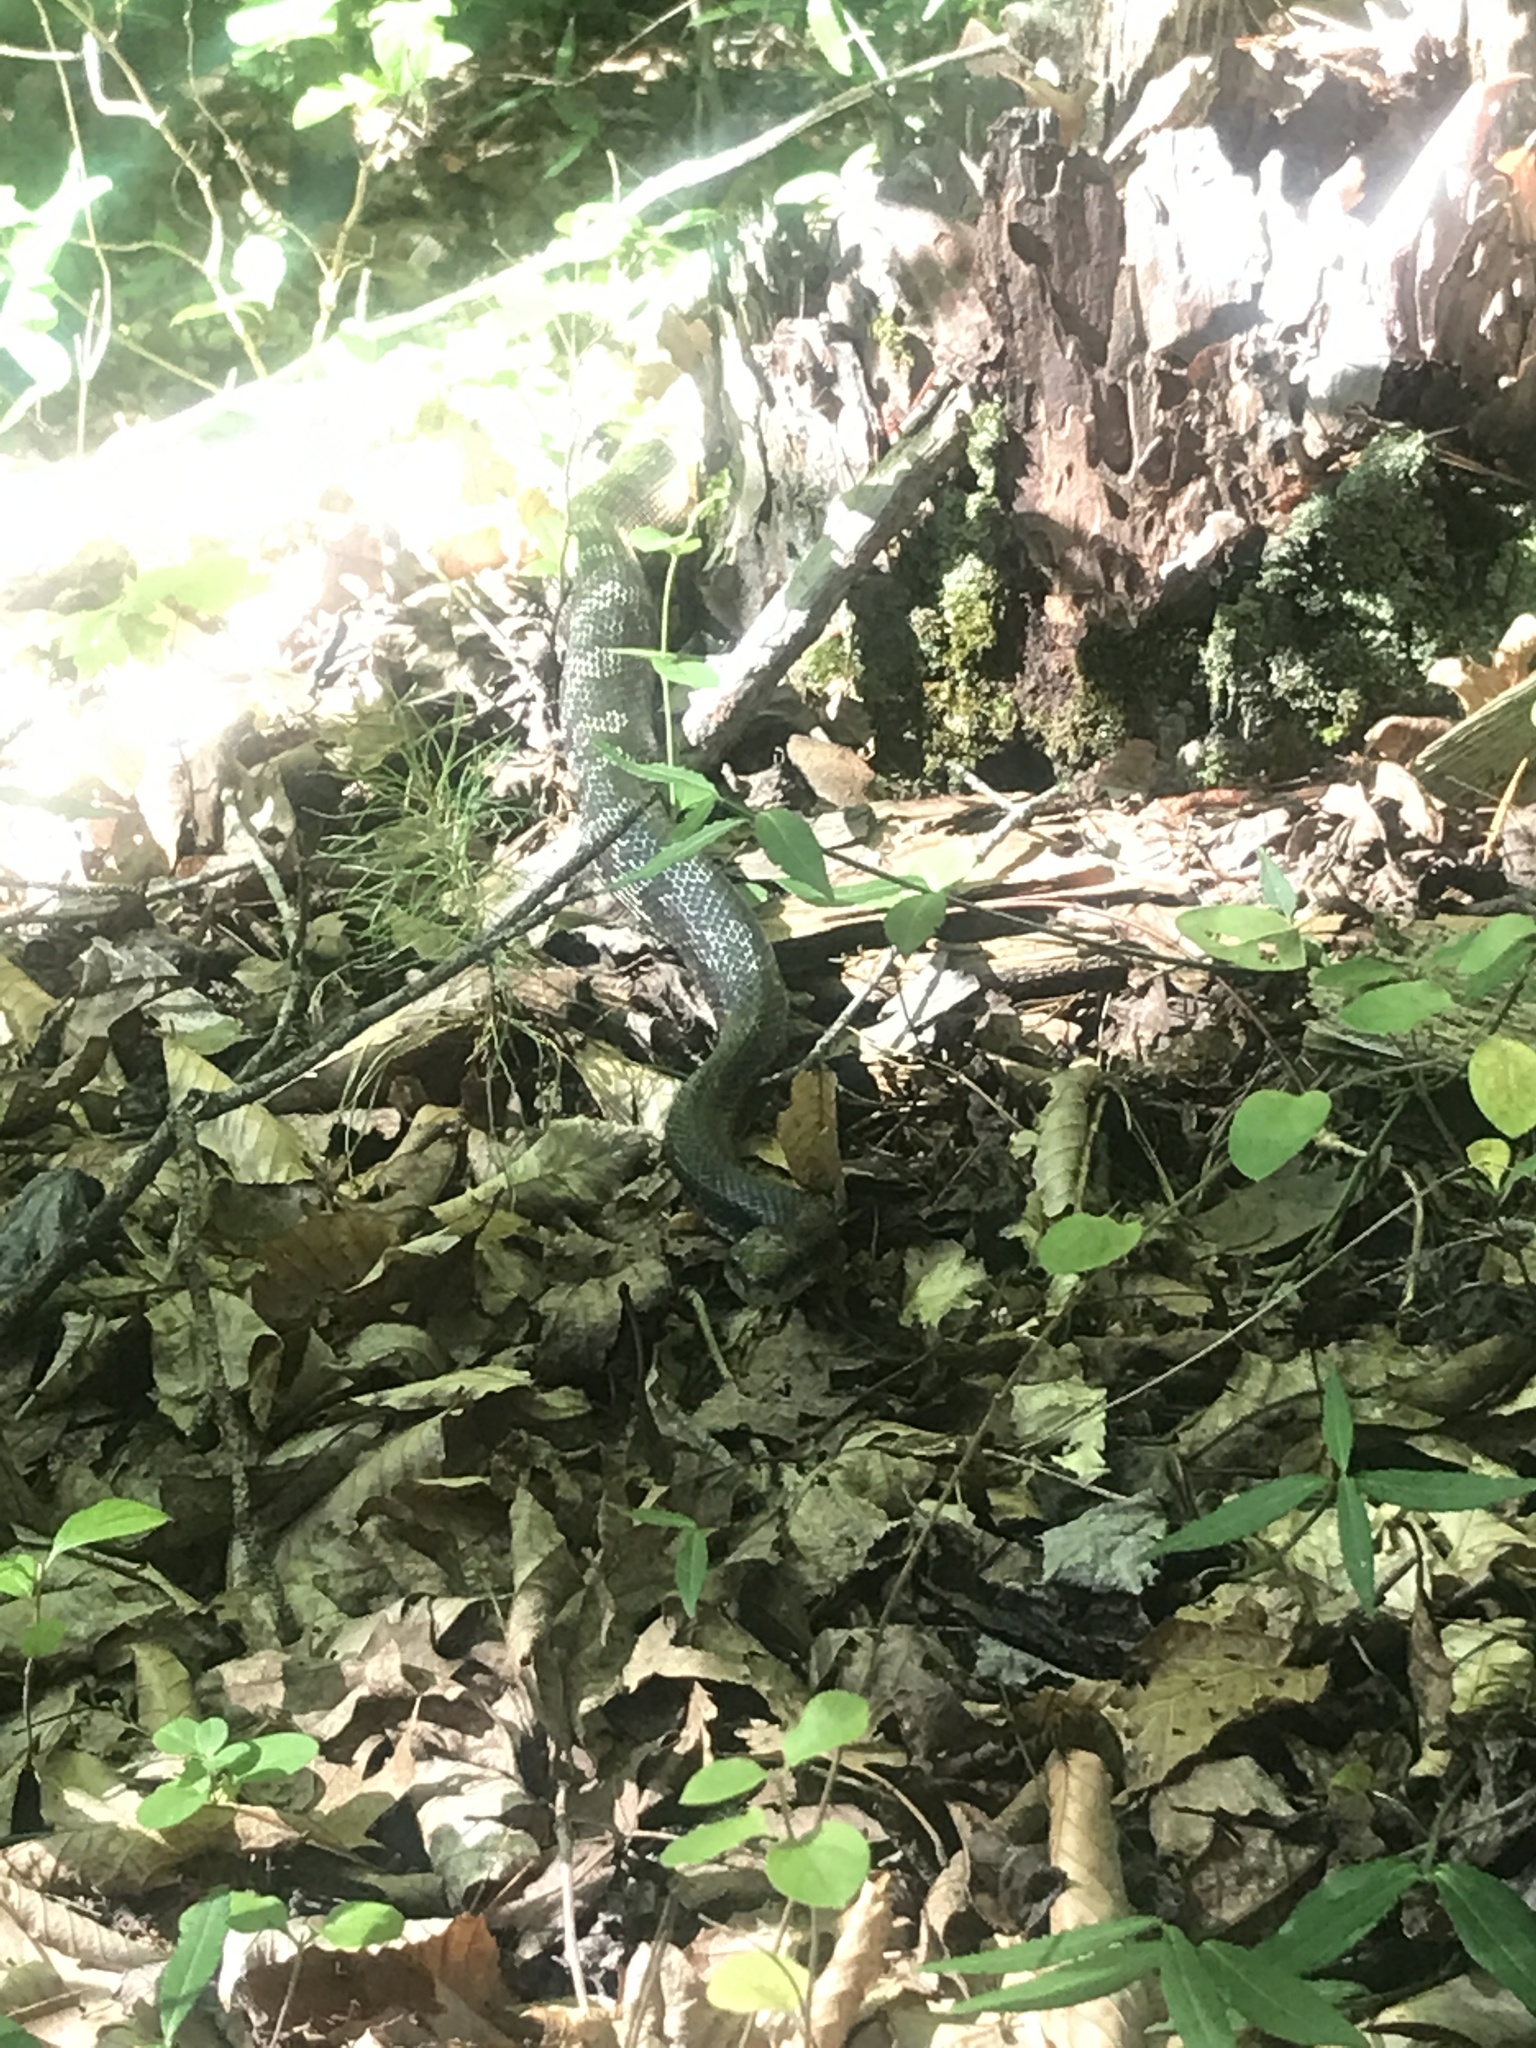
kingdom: Animalia
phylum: Chordata
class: Squamata
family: Colubridae
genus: Pantherophis
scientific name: Pantherophis spiloides
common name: Gray rat snake
